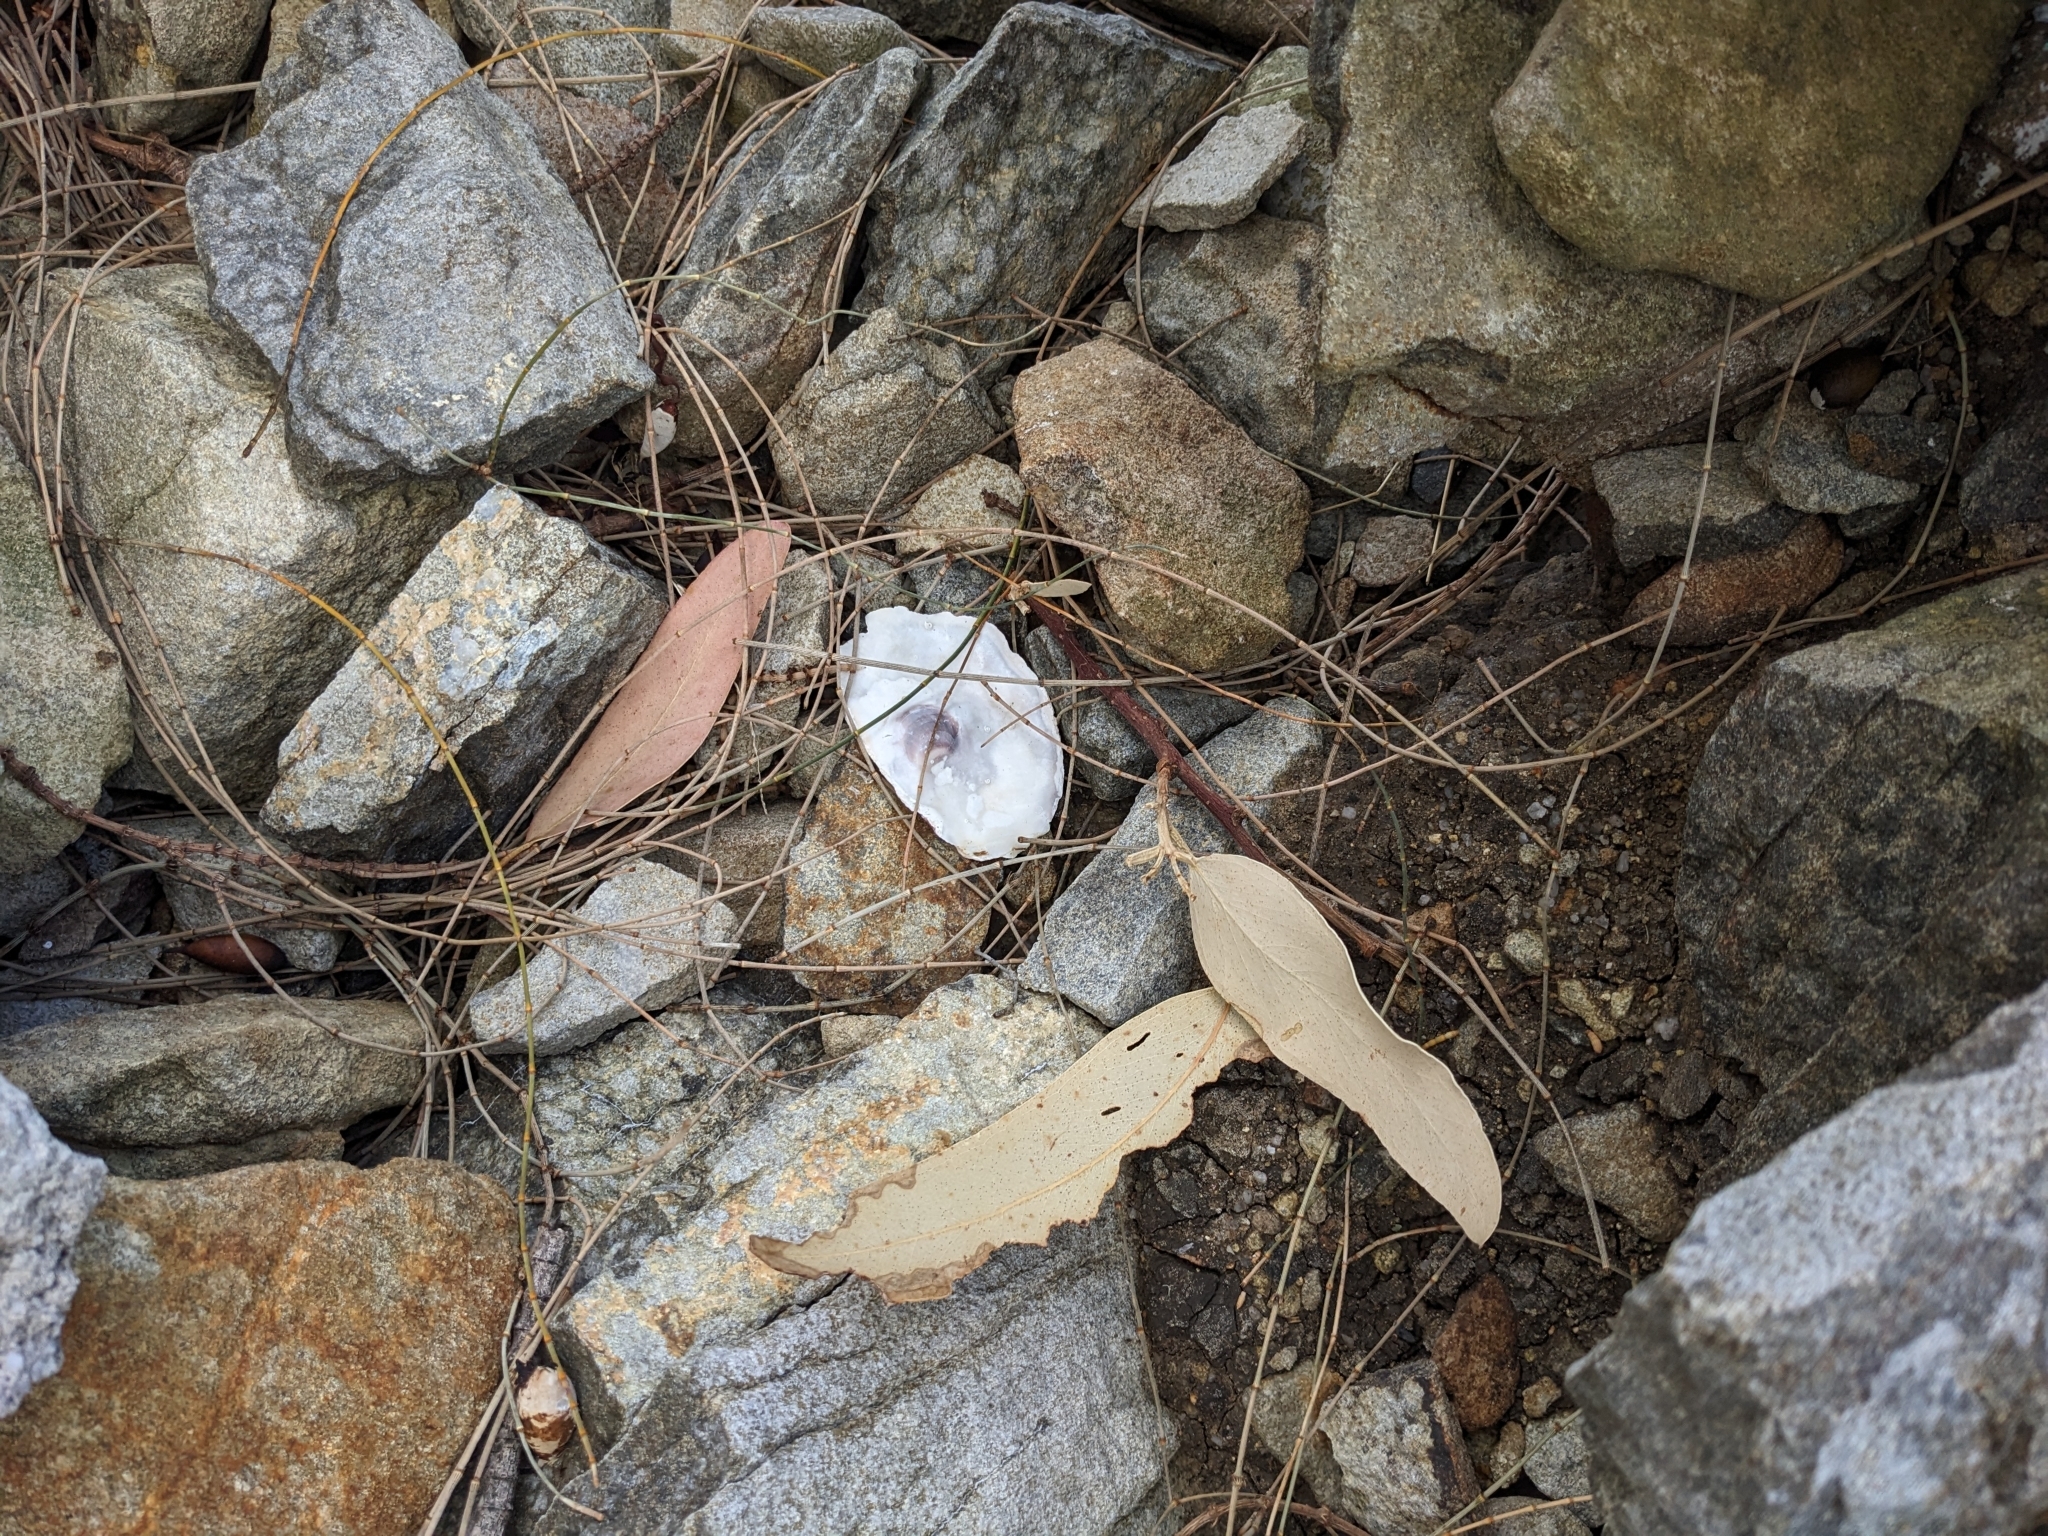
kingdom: Animalia
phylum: Mollusca
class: Bivalvia
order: Ostreida
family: Ostreidae
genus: Magallana
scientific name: Magallana gigas
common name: Pacific oyster
